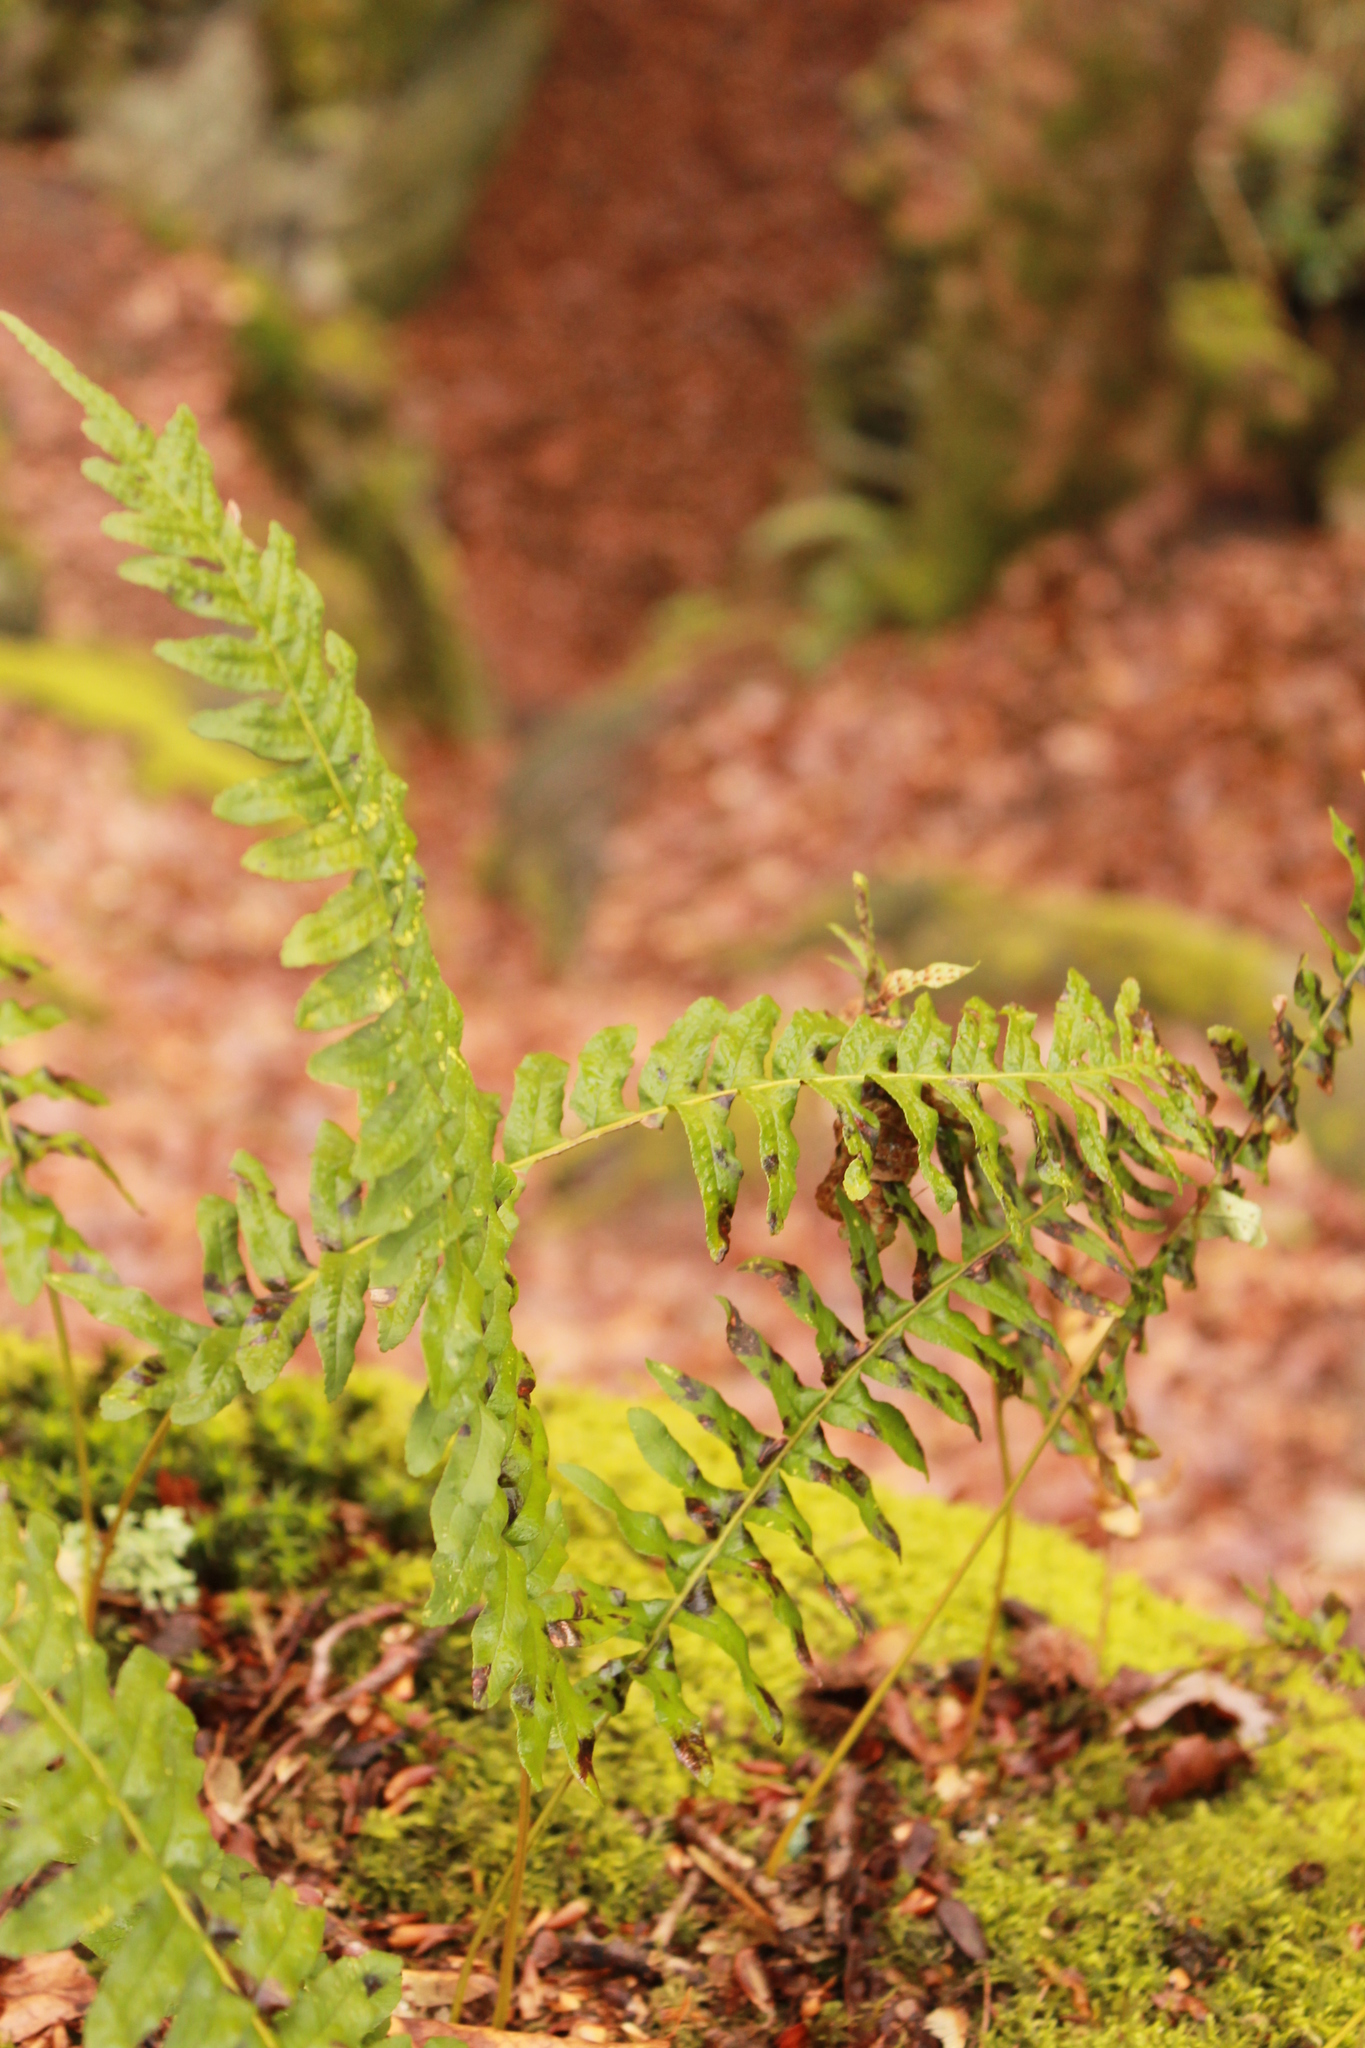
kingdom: Plantae
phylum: Tracheophyta
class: Polypodiopsida
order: Polypodiales
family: Polypodiaceae
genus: Polypodium
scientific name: Polypodium vulgare
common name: Common polypody
